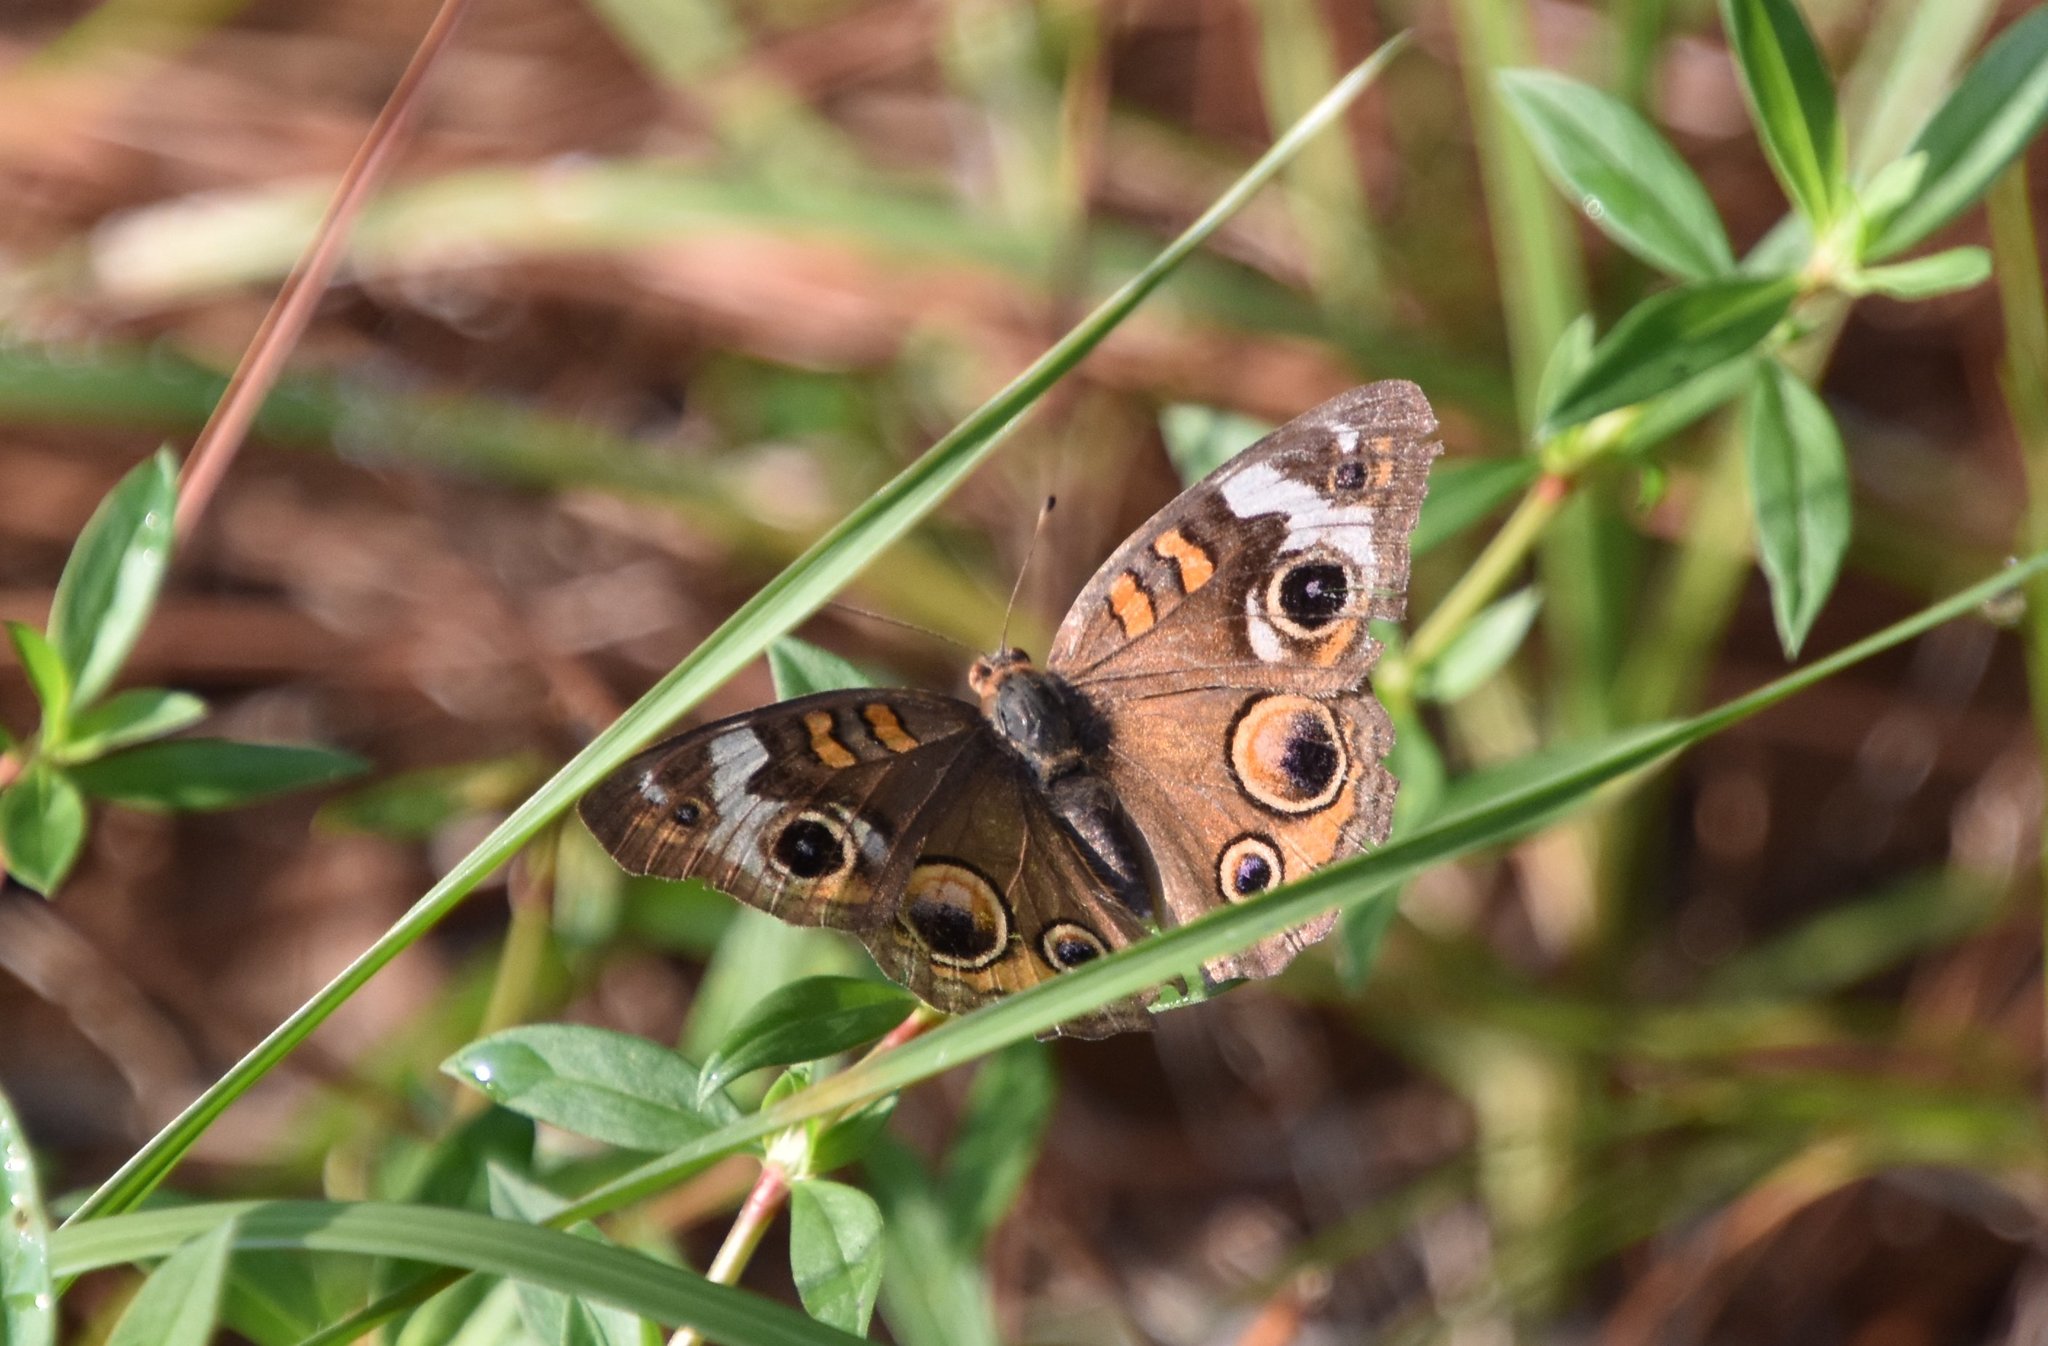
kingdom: Animalia
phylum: Arthropoda
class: Insecta
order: Lepidoptera
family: Nymphalidae
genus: Junonia
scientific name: Junonia coenia
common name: Common buckeye
